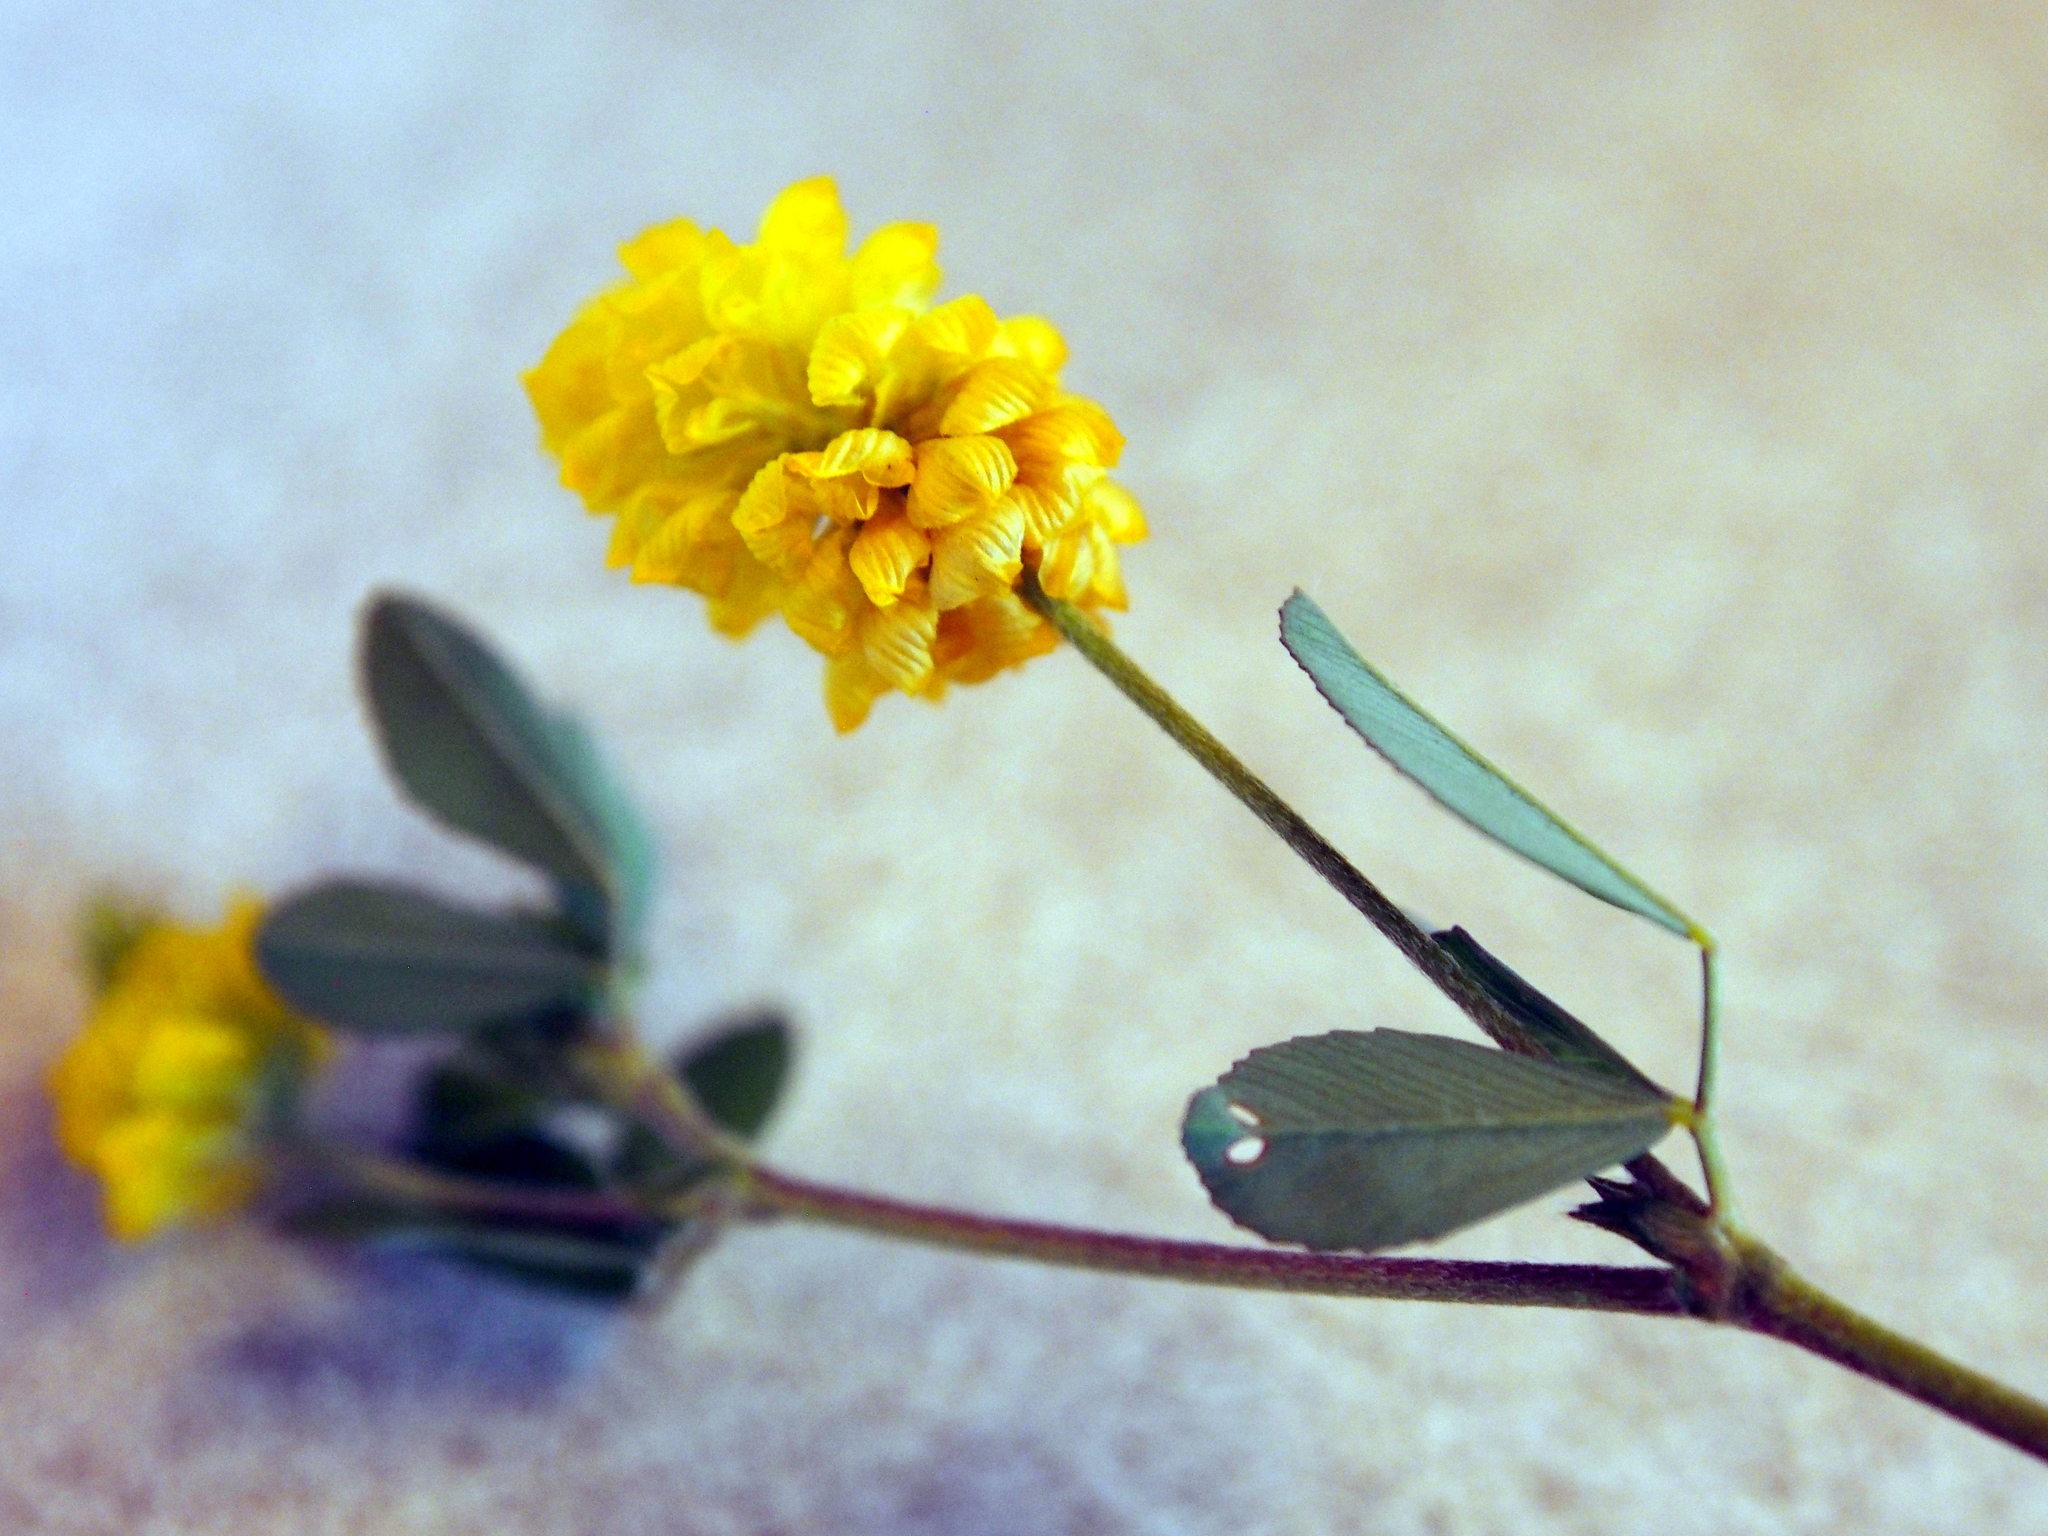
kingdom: Plantae
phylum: Tracheophyta
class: Magnoliopsida
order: Fabales
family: Fabaceae
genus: Trifolium
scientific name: Trifolium campestre
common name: Field clover
